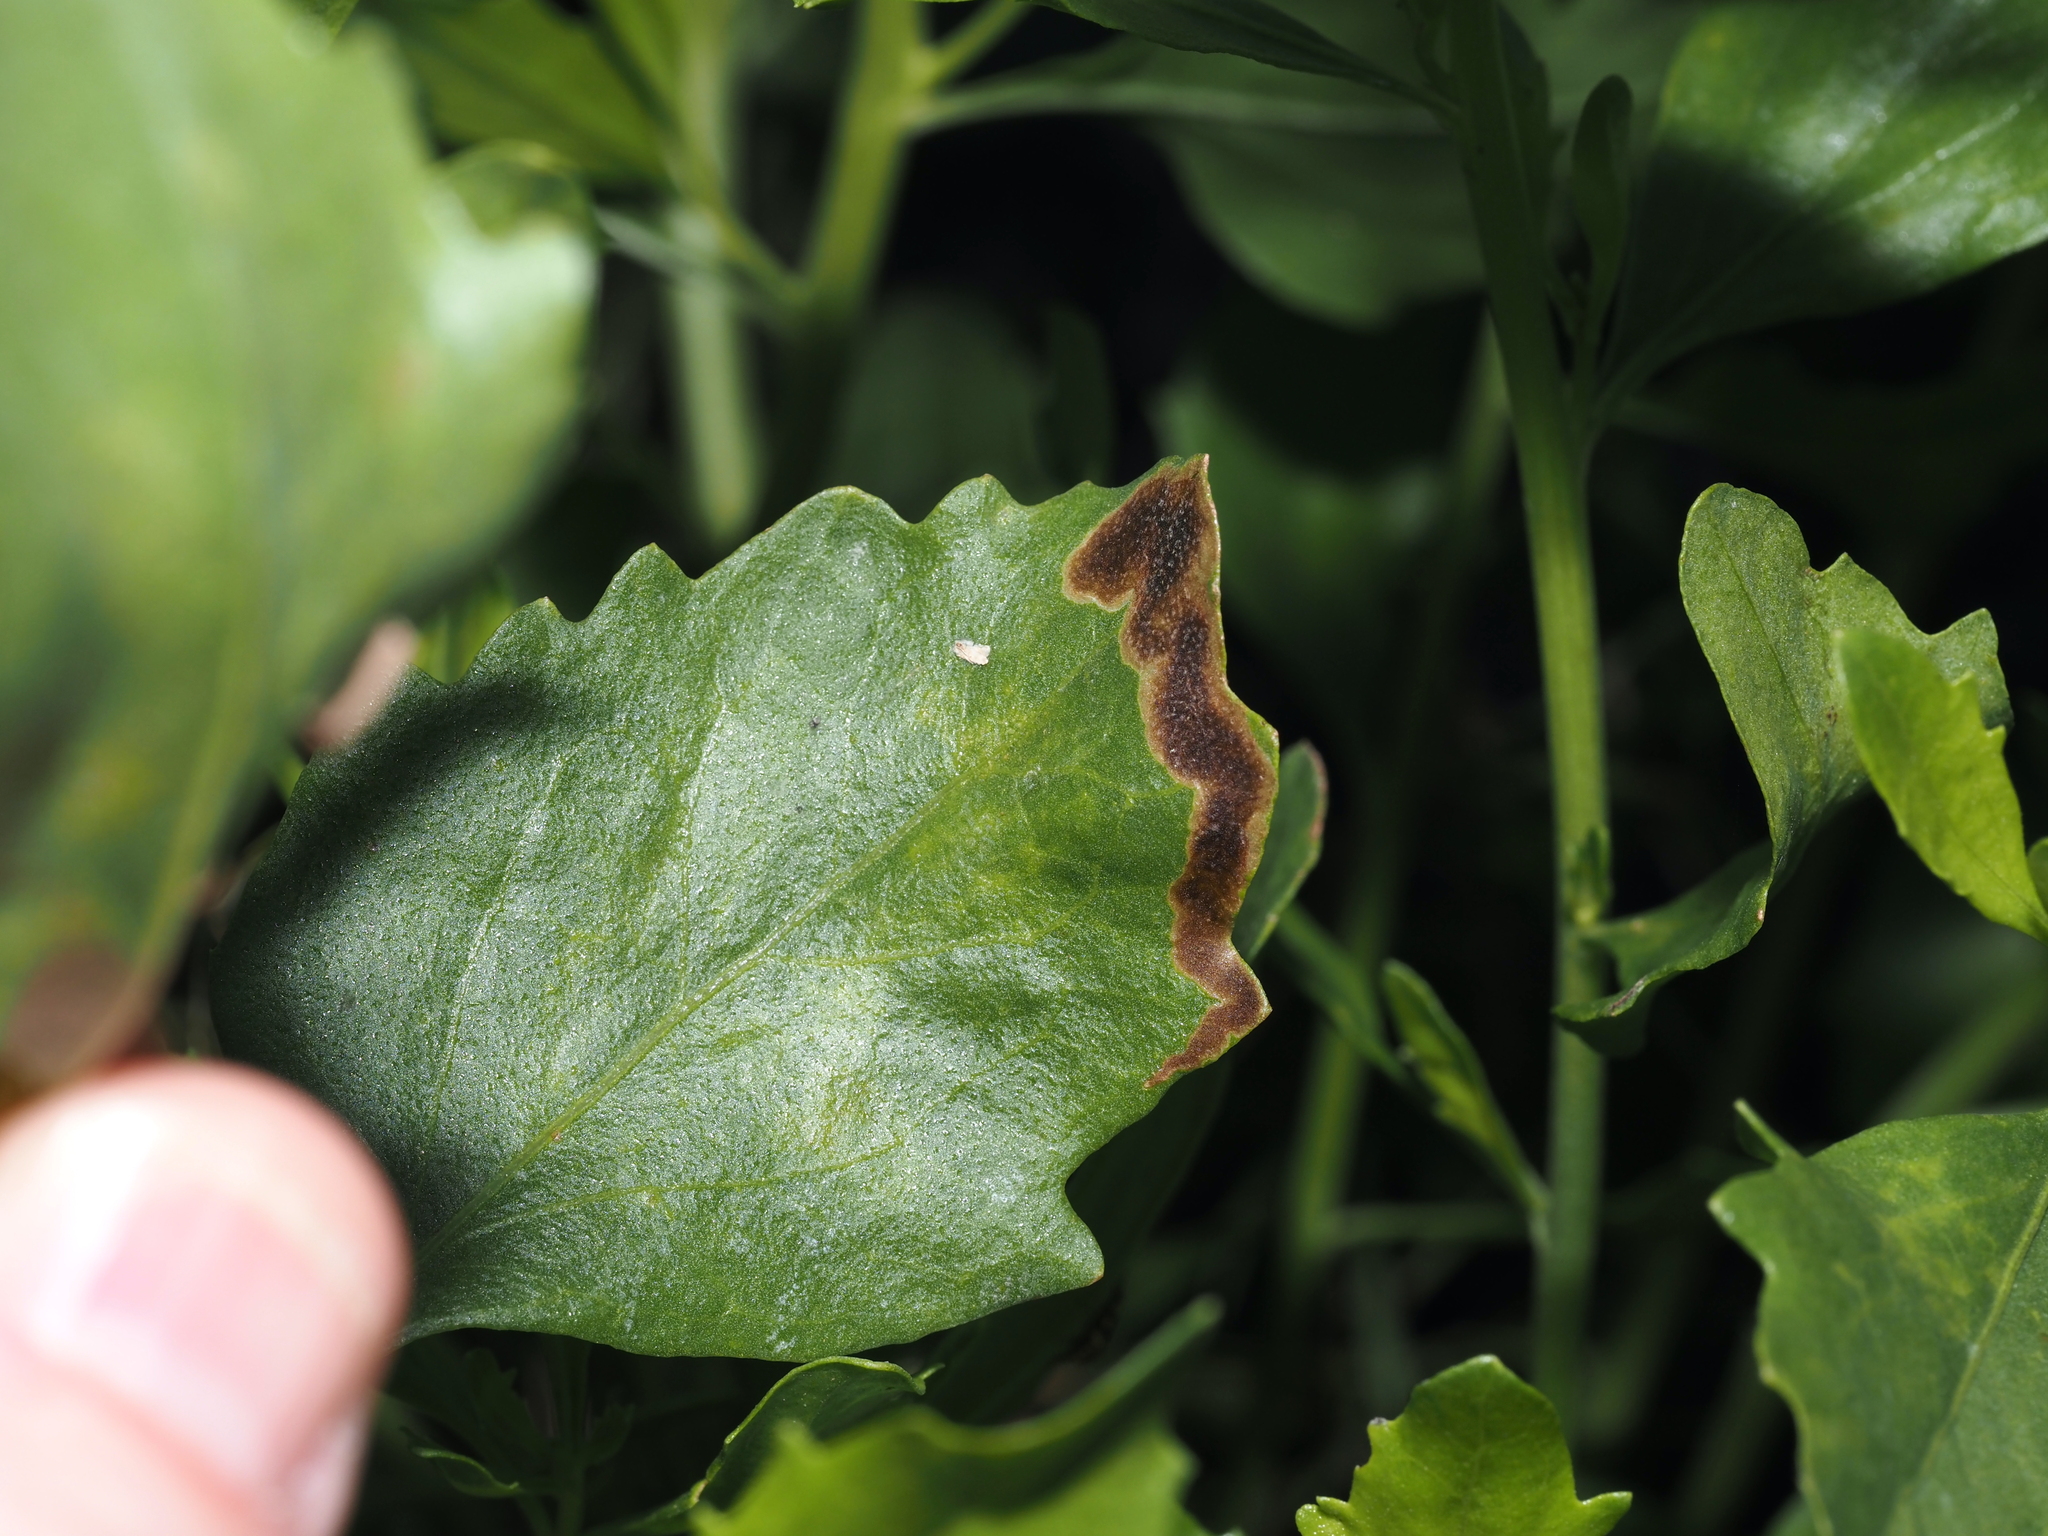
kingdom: Animalia
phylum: Arthropoda
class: Insecta
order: Diptera
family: Agromyzidae
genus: Nemorimyza
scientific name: Nemorimyza posticata
